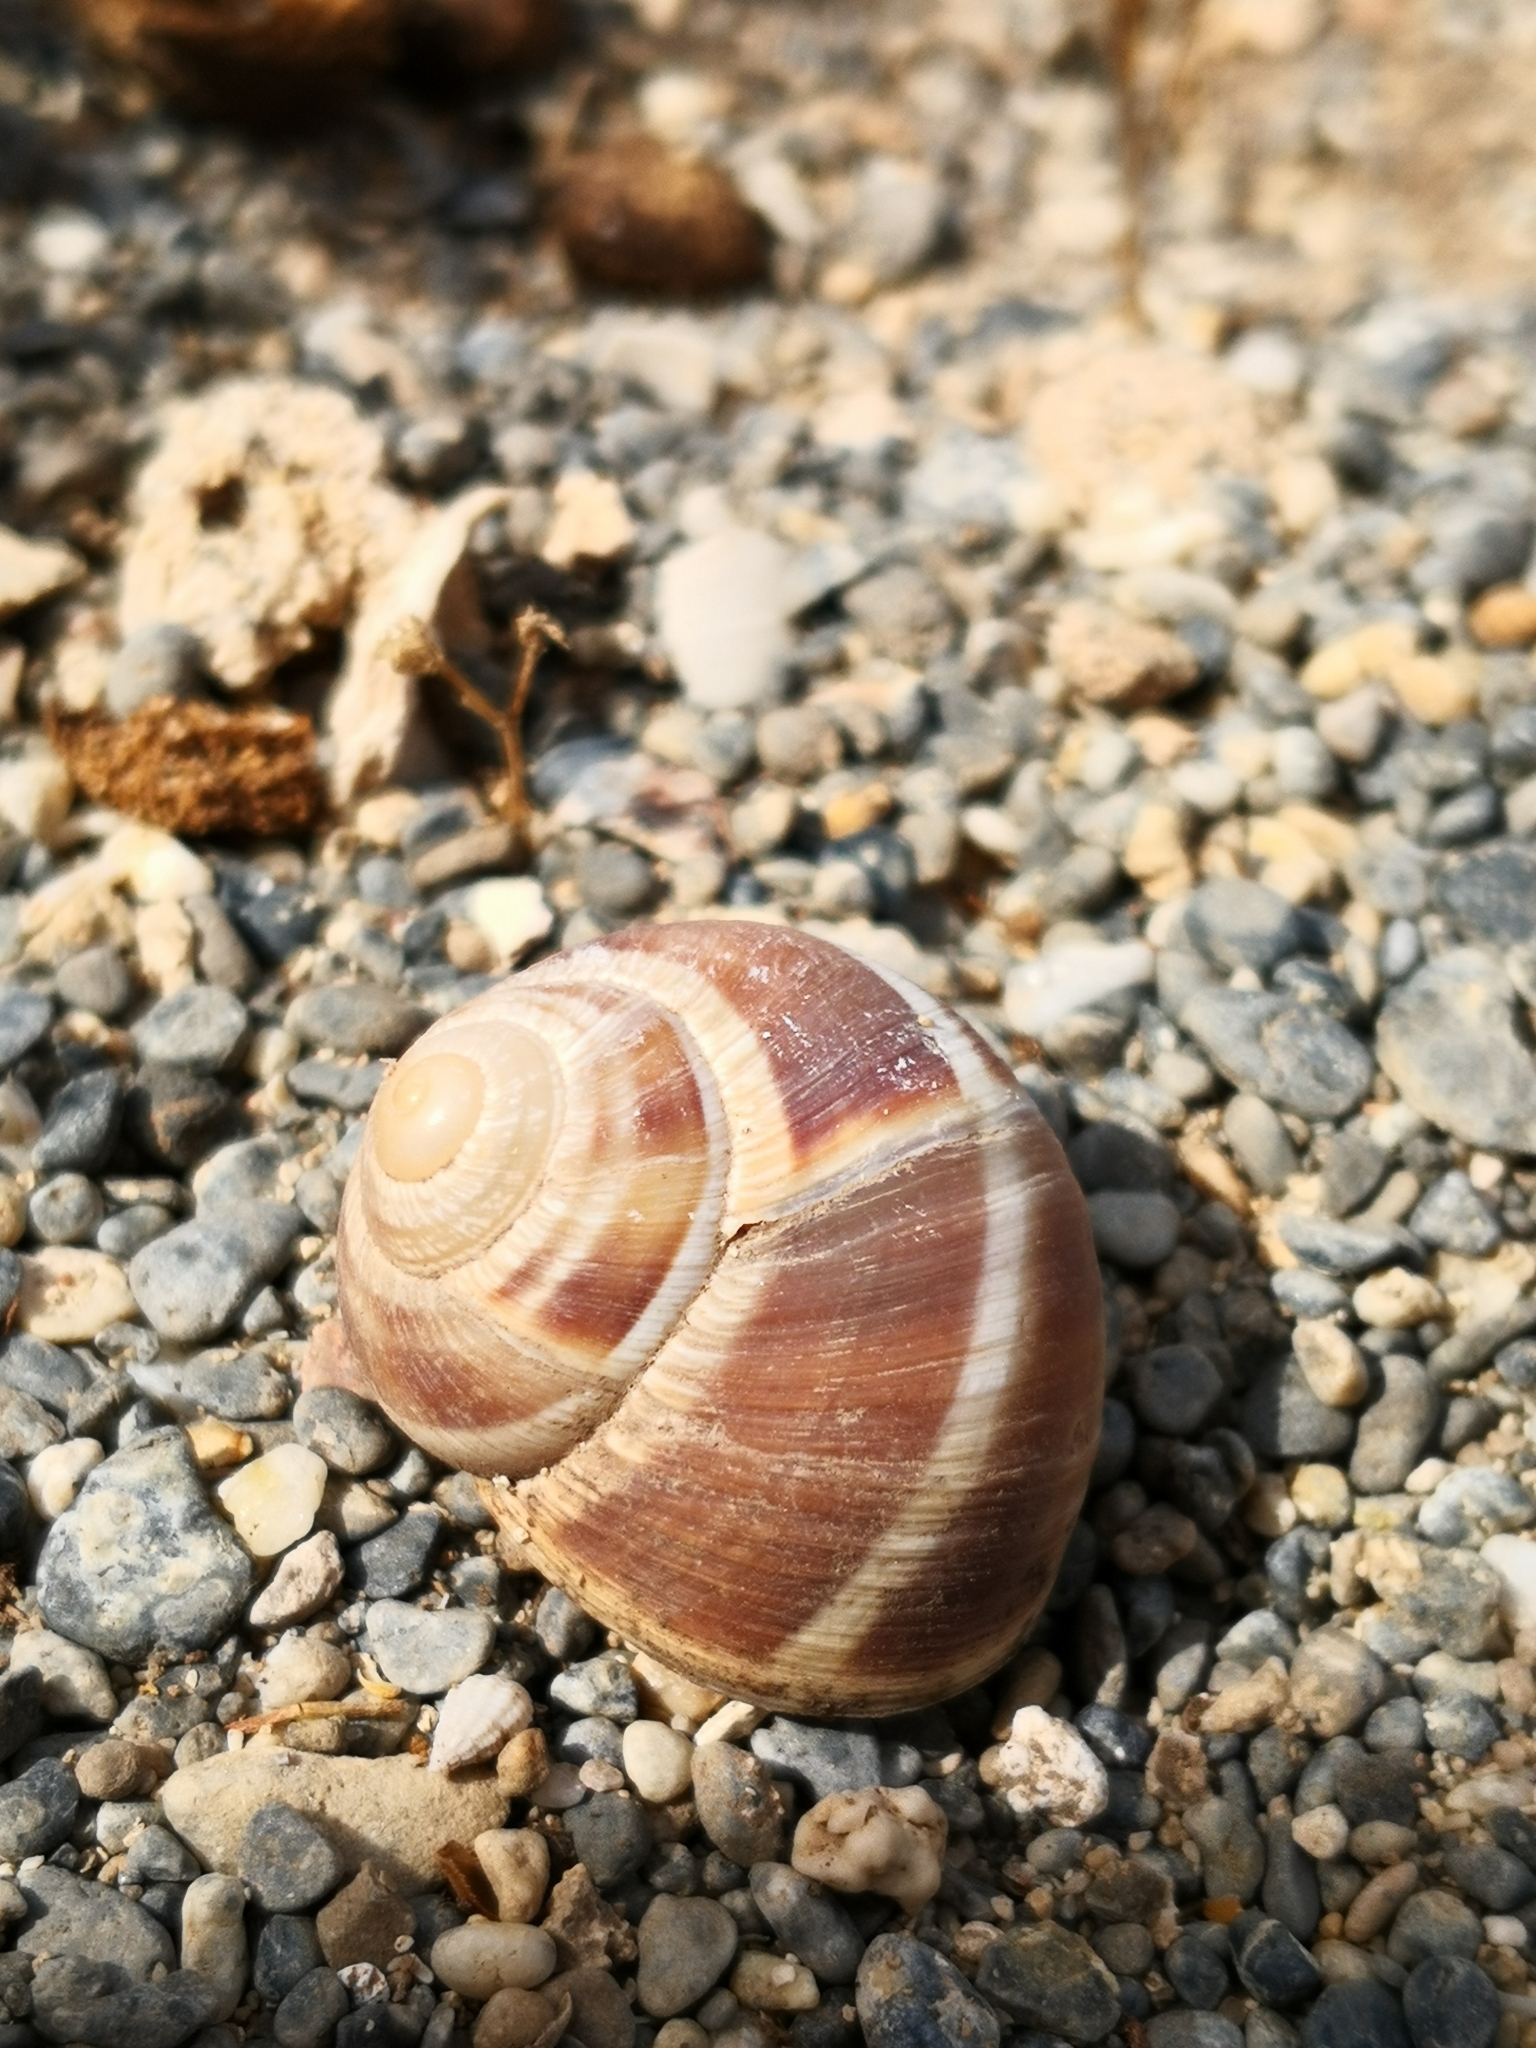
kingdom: Animalia
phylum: Mollusca
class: Gastropoda
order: Stylommatophora
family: Helicidae
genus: Helix
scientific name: Helix pronuba
